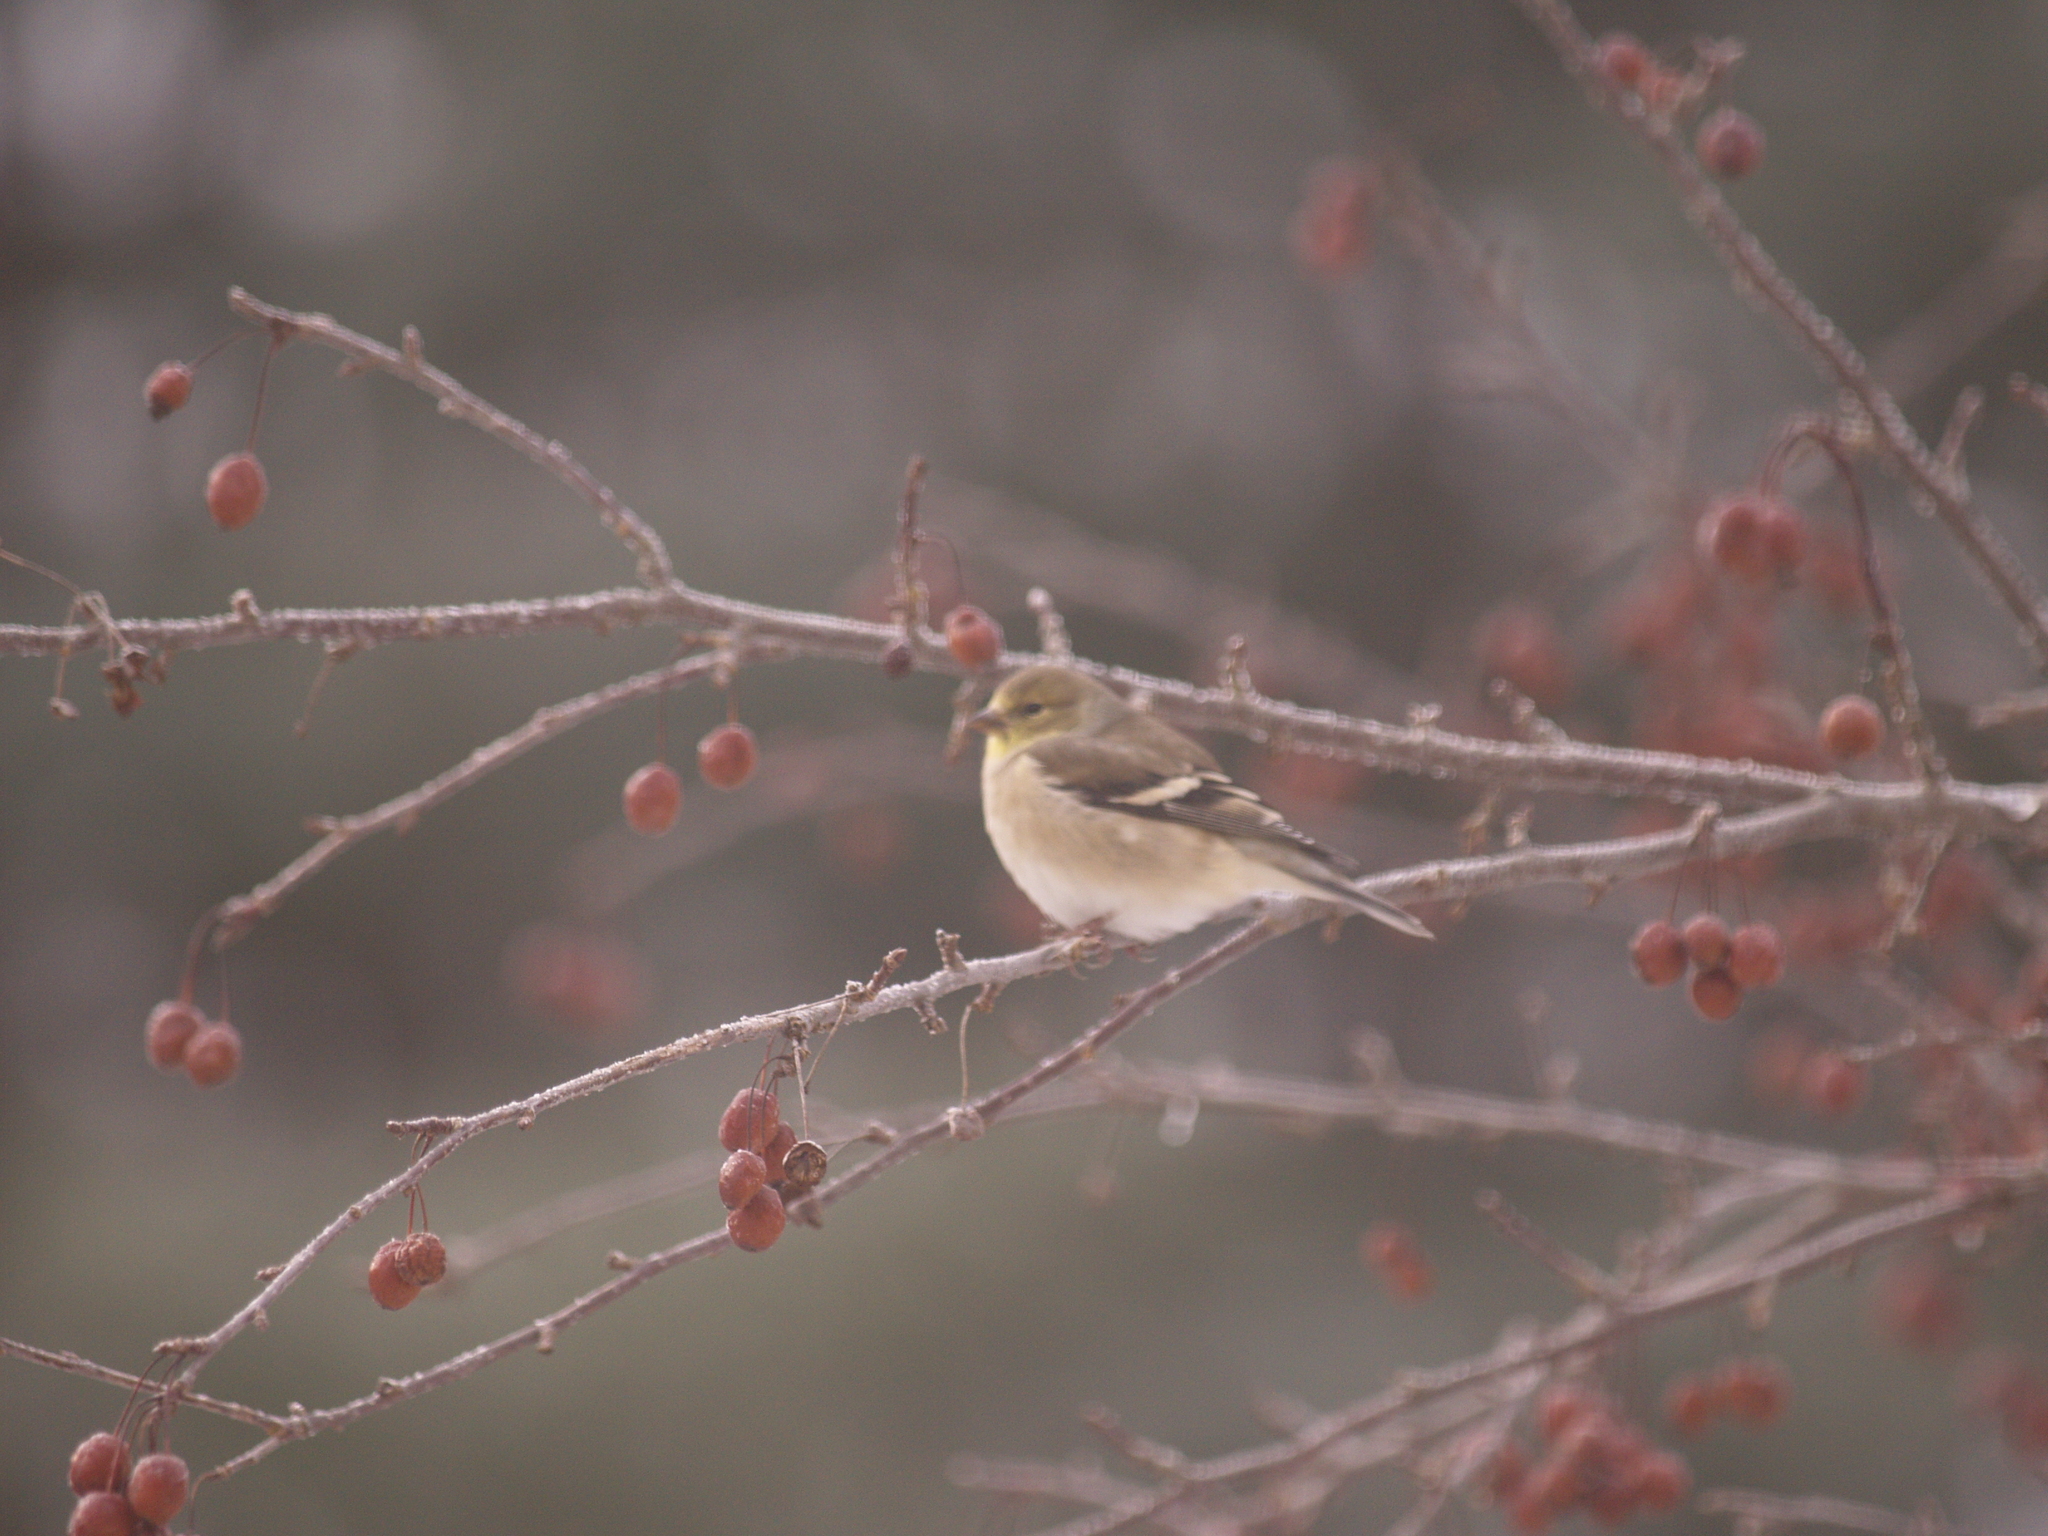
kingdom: Animalia
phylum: Chordata
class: Aves
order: Passeriformes
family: Fringillidae
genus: Spinus
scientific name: Spinus tristis
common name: American goldfinch
